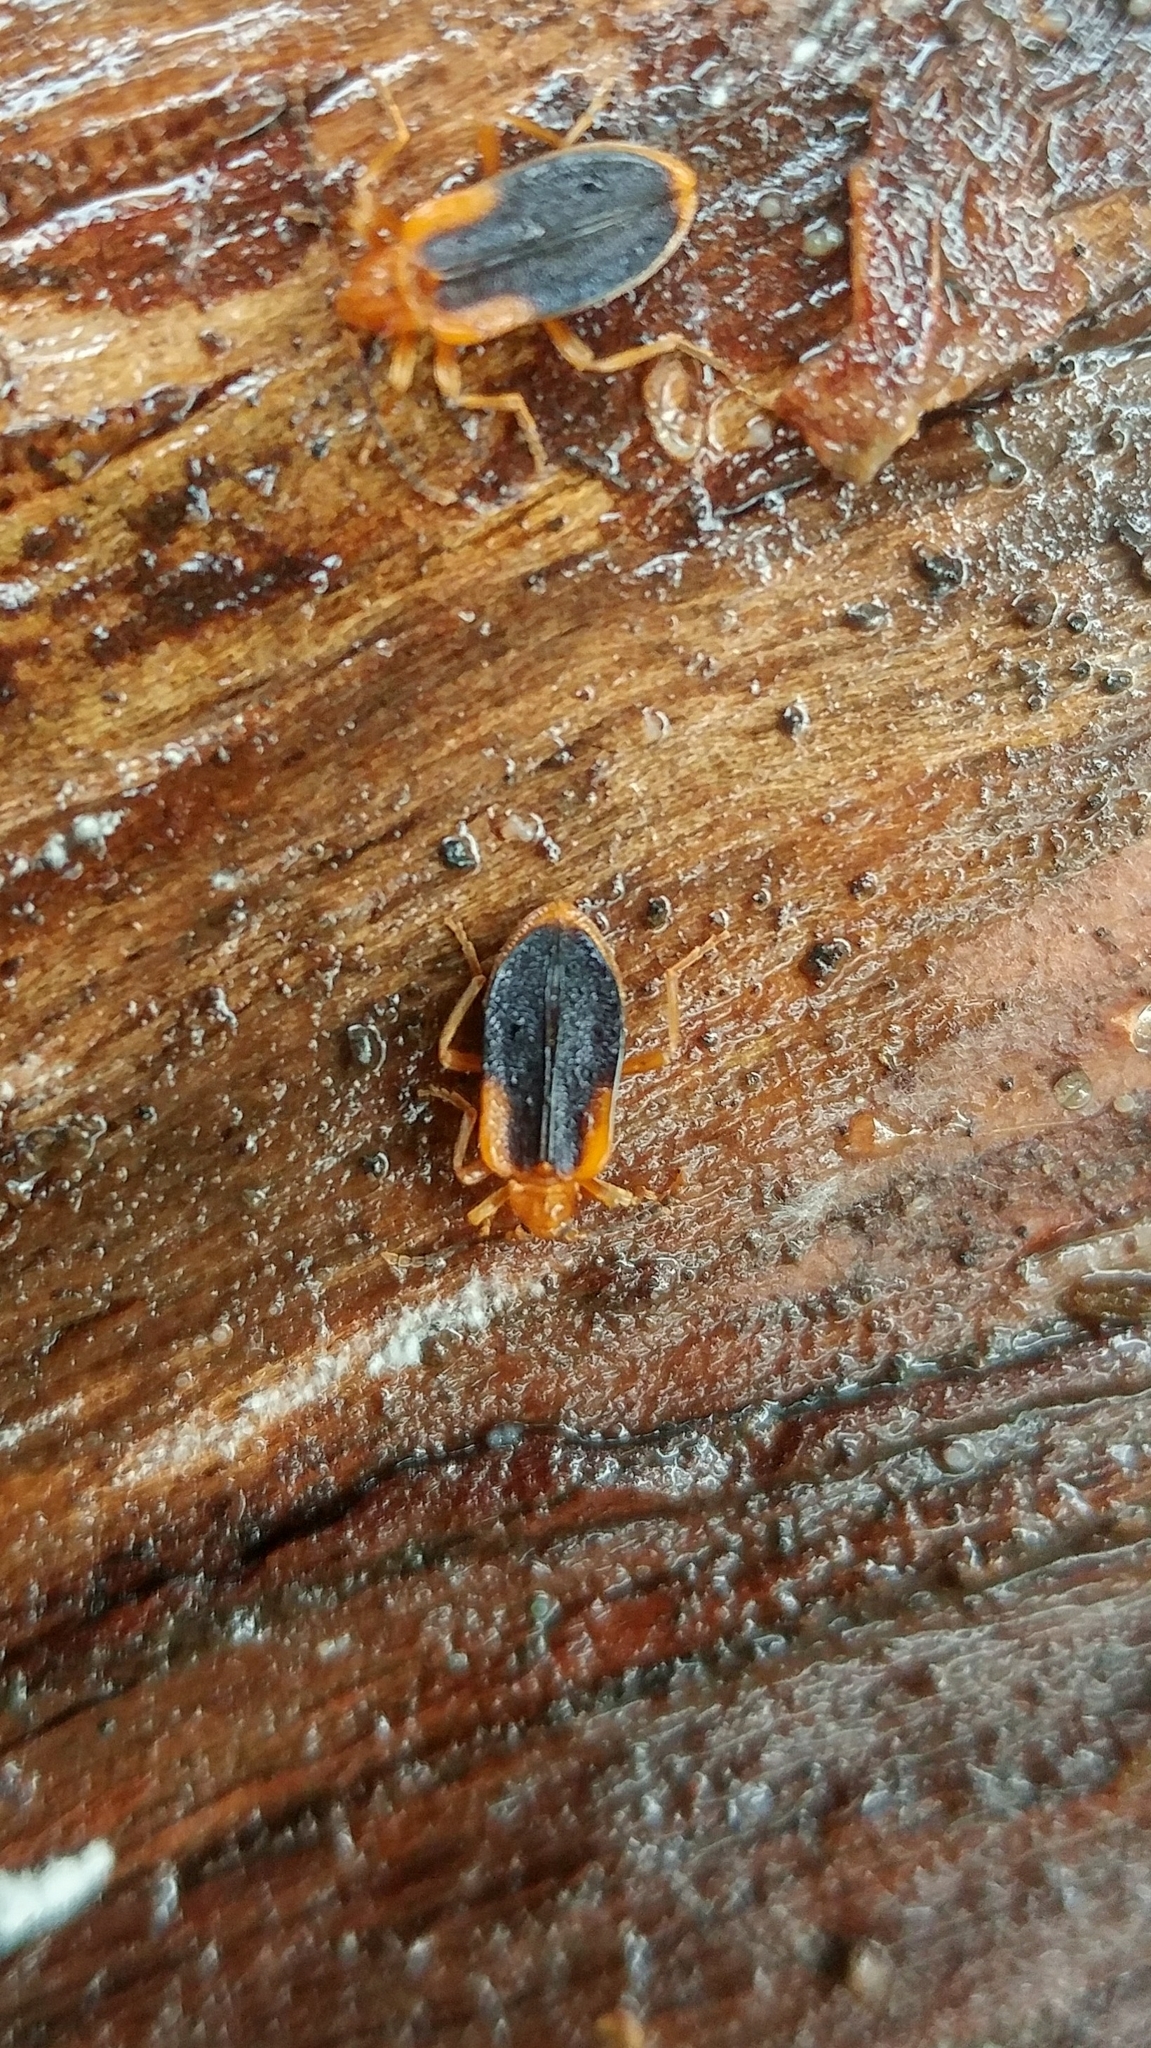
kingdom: Animalia
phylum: Arthropoda
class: Insecta
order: Coleoptera
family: Anthicidae
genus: Ischalia
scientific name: Ischalia vancouverensis
